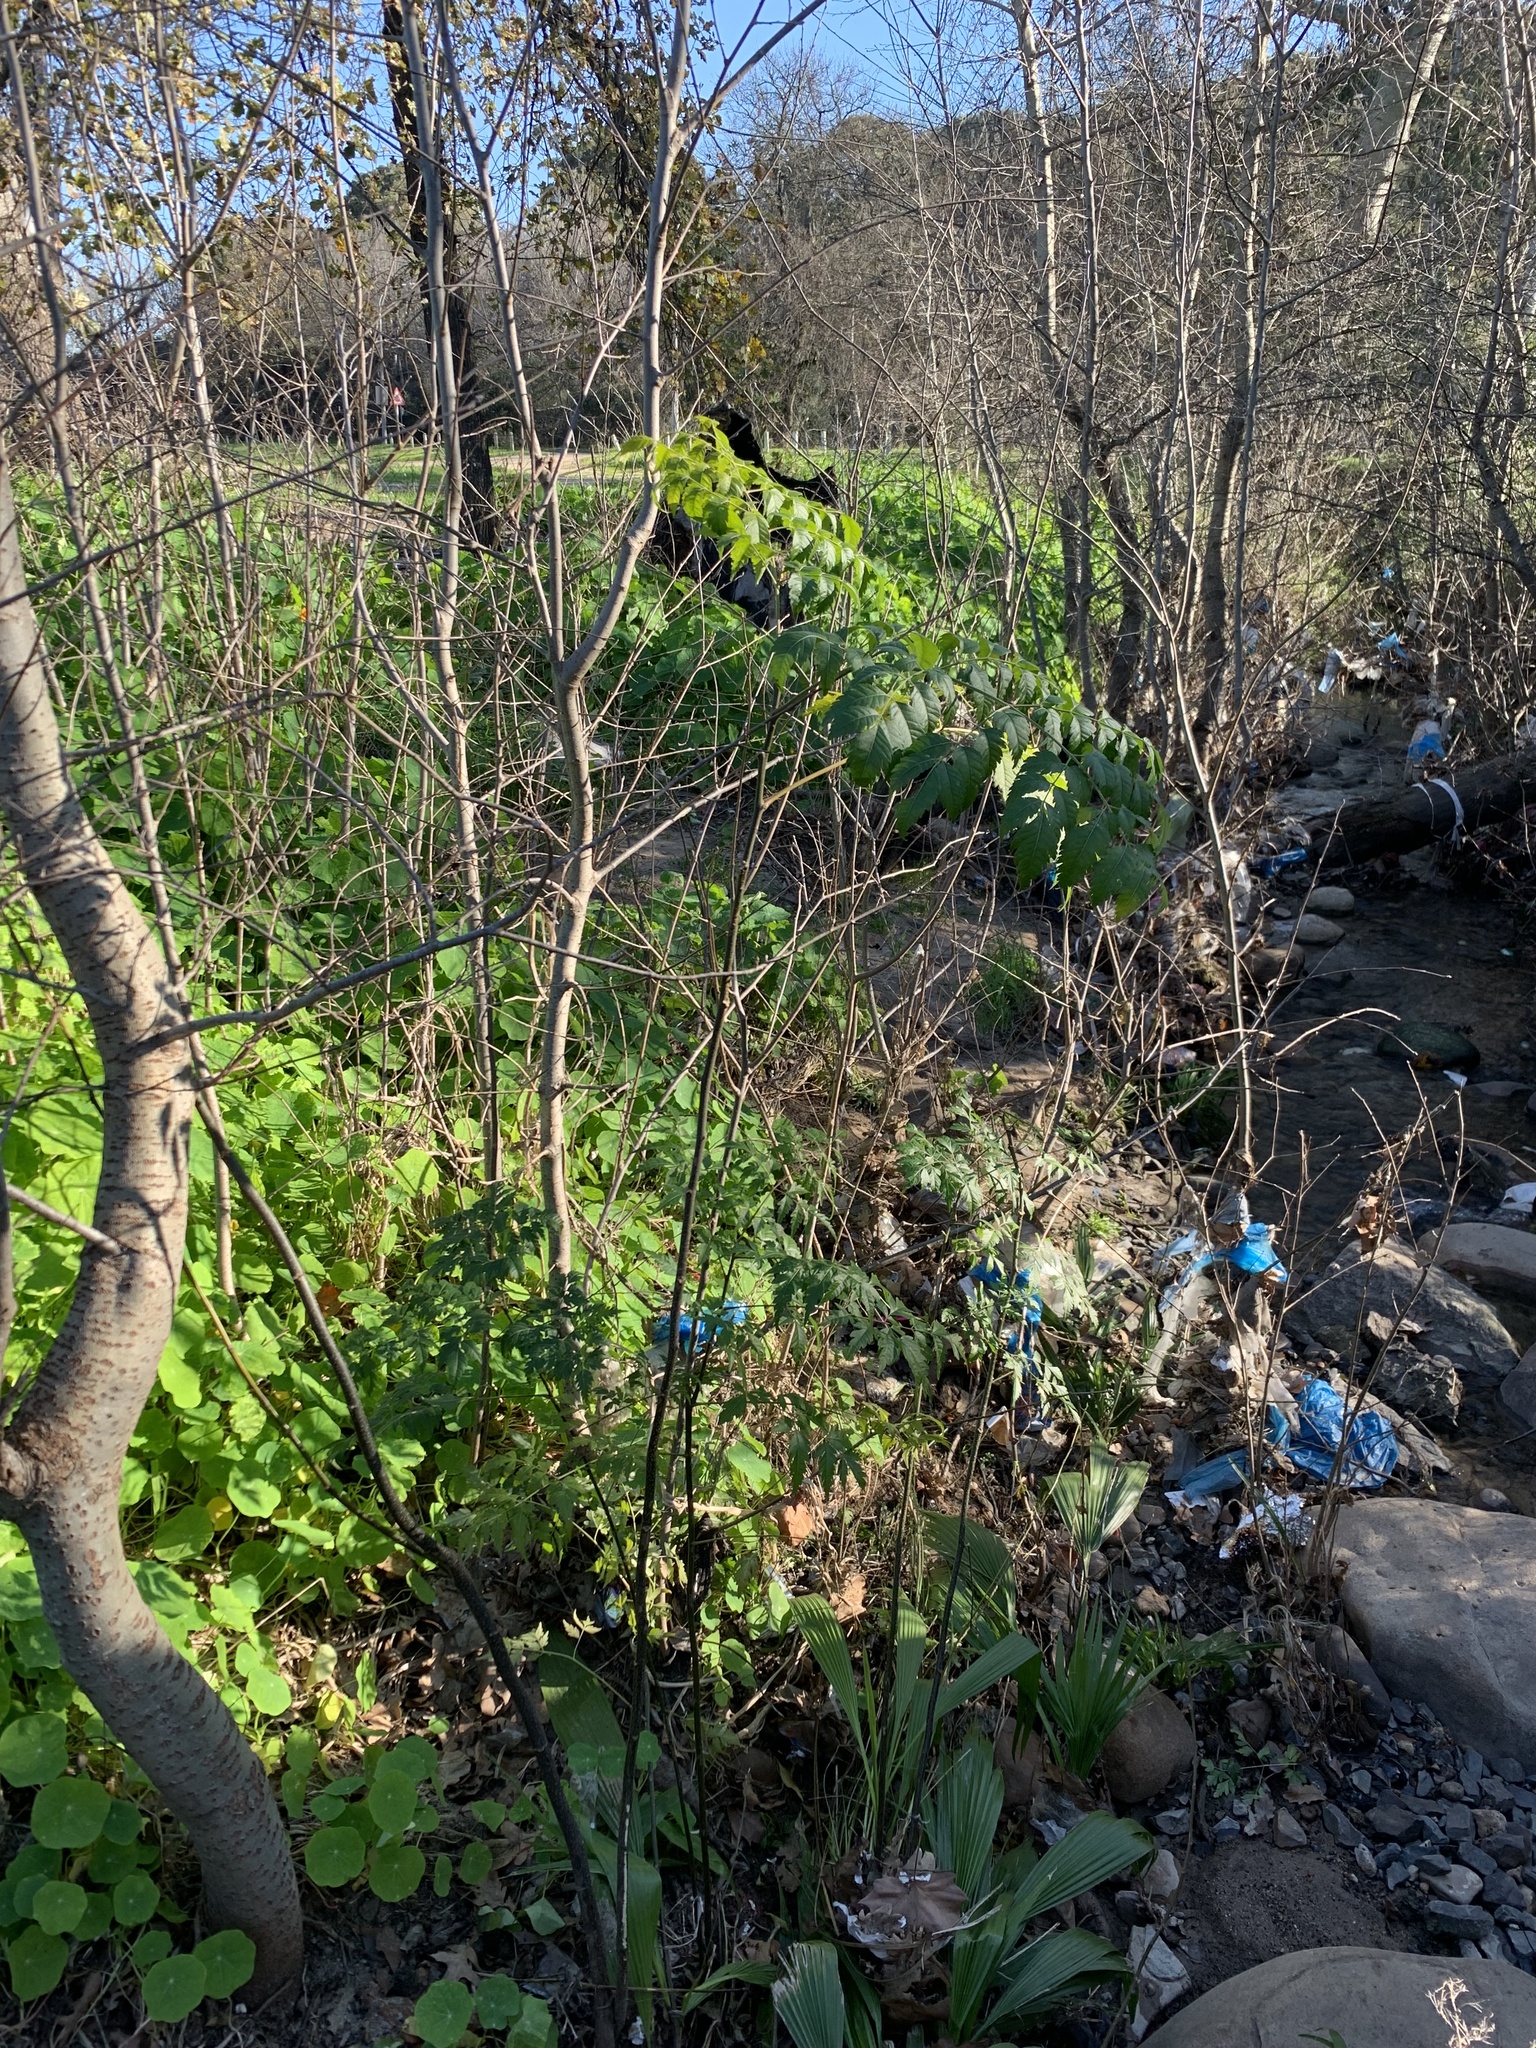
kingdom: Plantae
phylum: Tracheophyta
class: Magnoliopsida
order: Sapindales
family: Meliaceae
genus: Melia
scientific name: Melia azedarach
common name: Chinaberrytree
